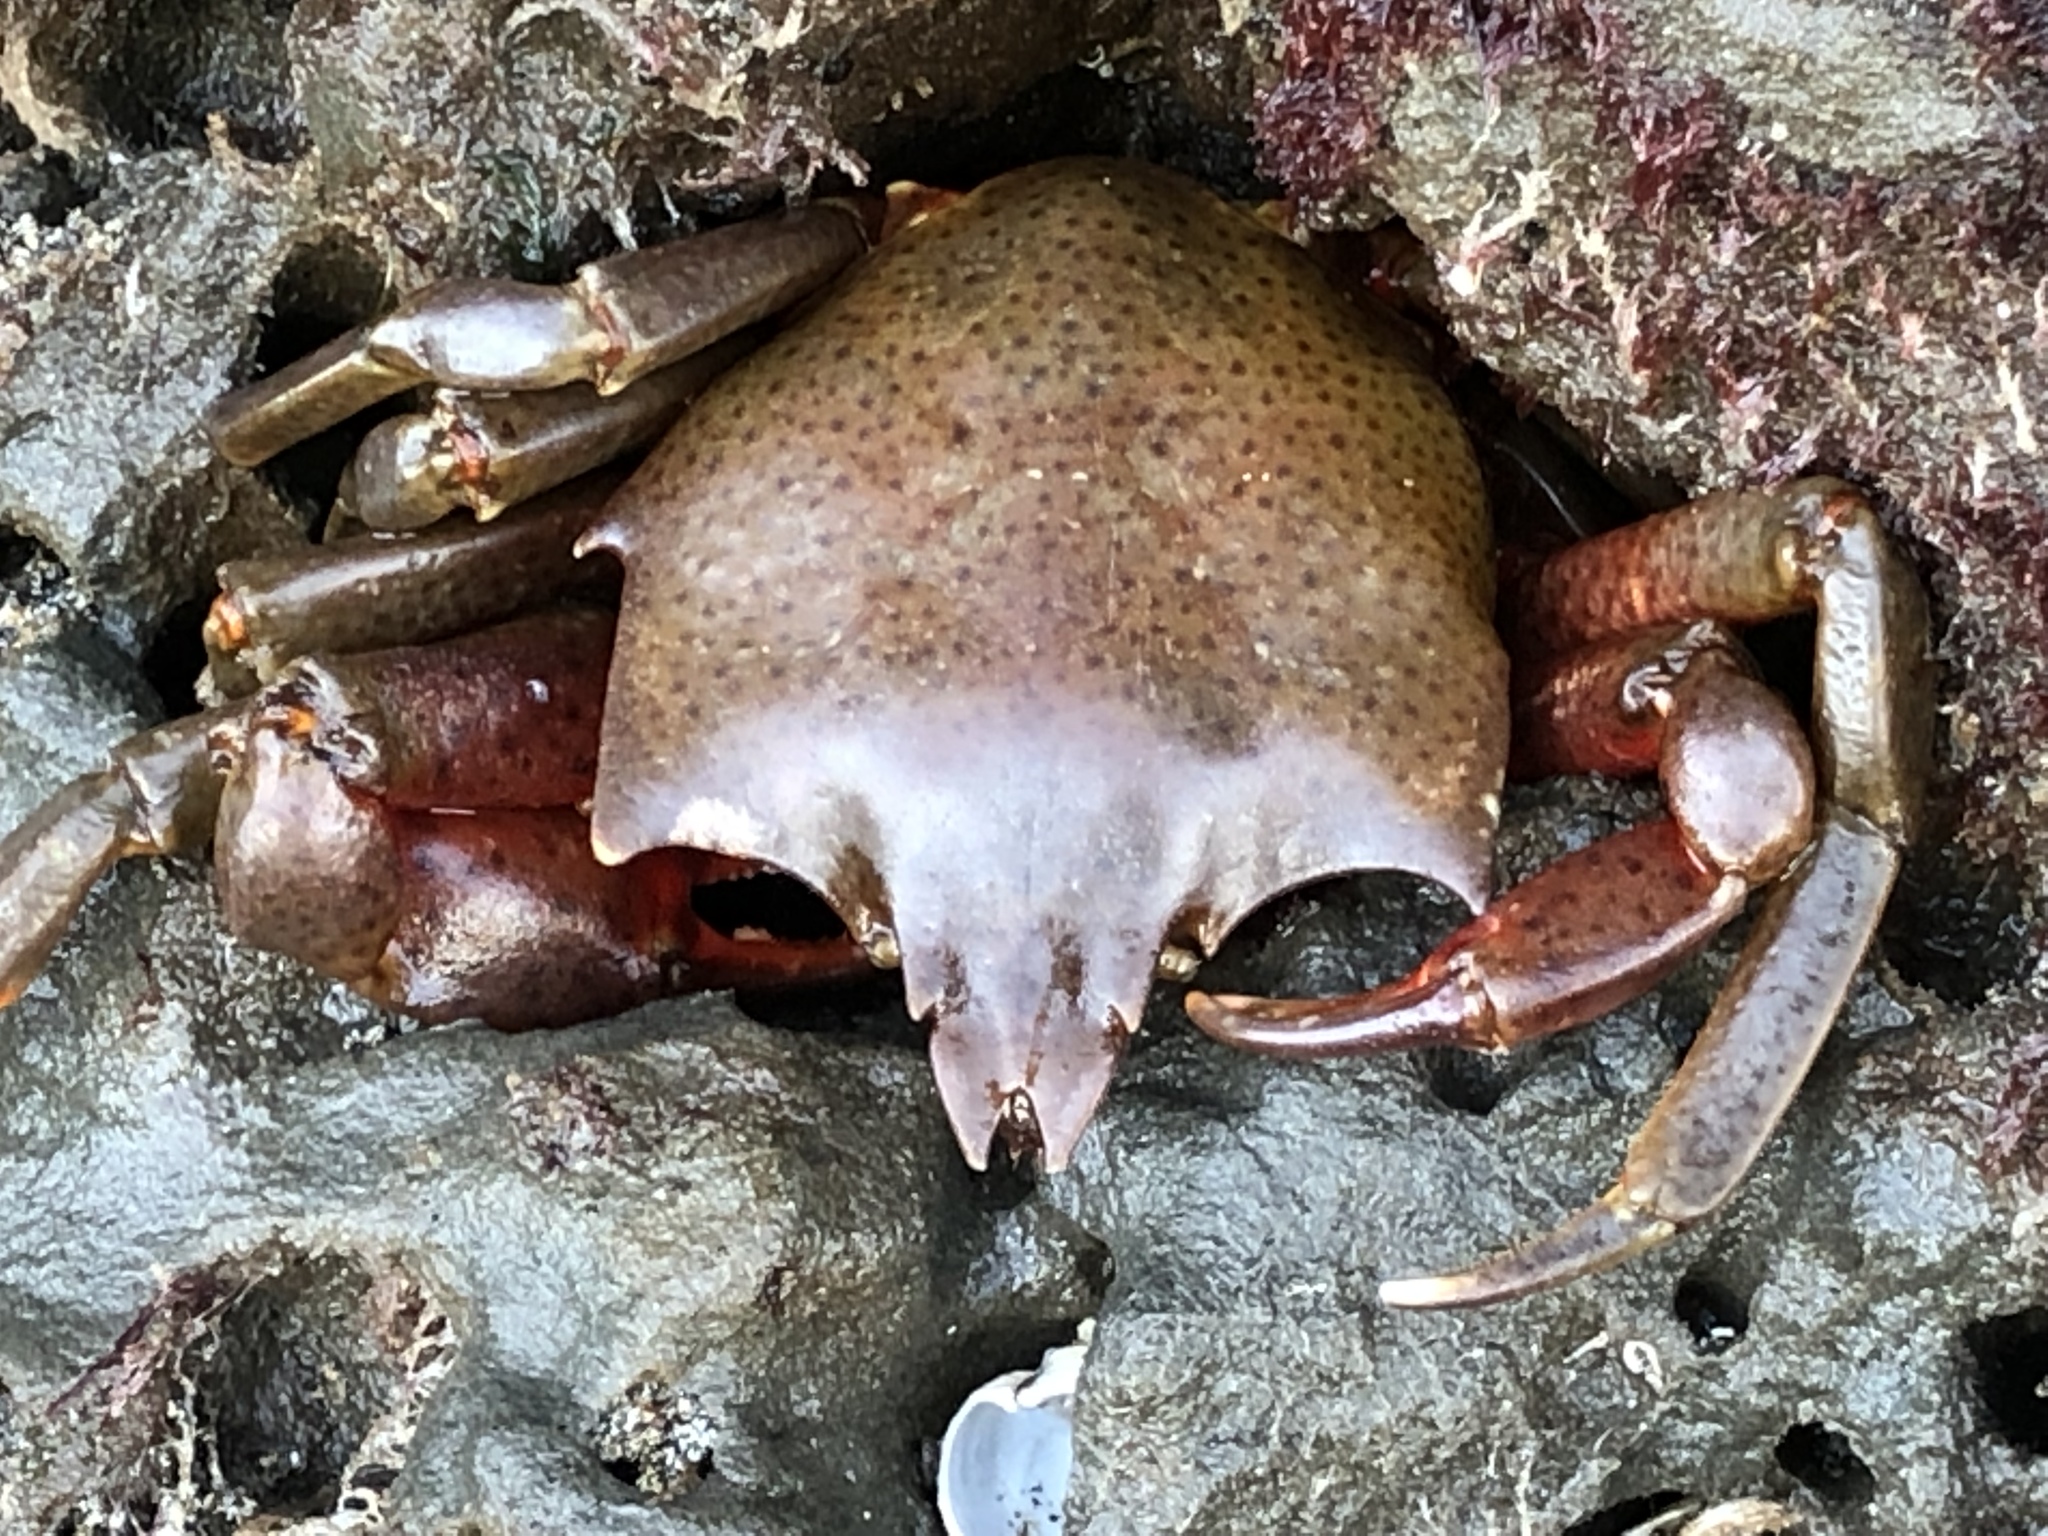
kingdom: Animalia
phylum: Arthropoda
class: Malacostraca
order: Decapoda
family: Epialtidae
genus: Pugettia
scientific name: Pugettia producta
